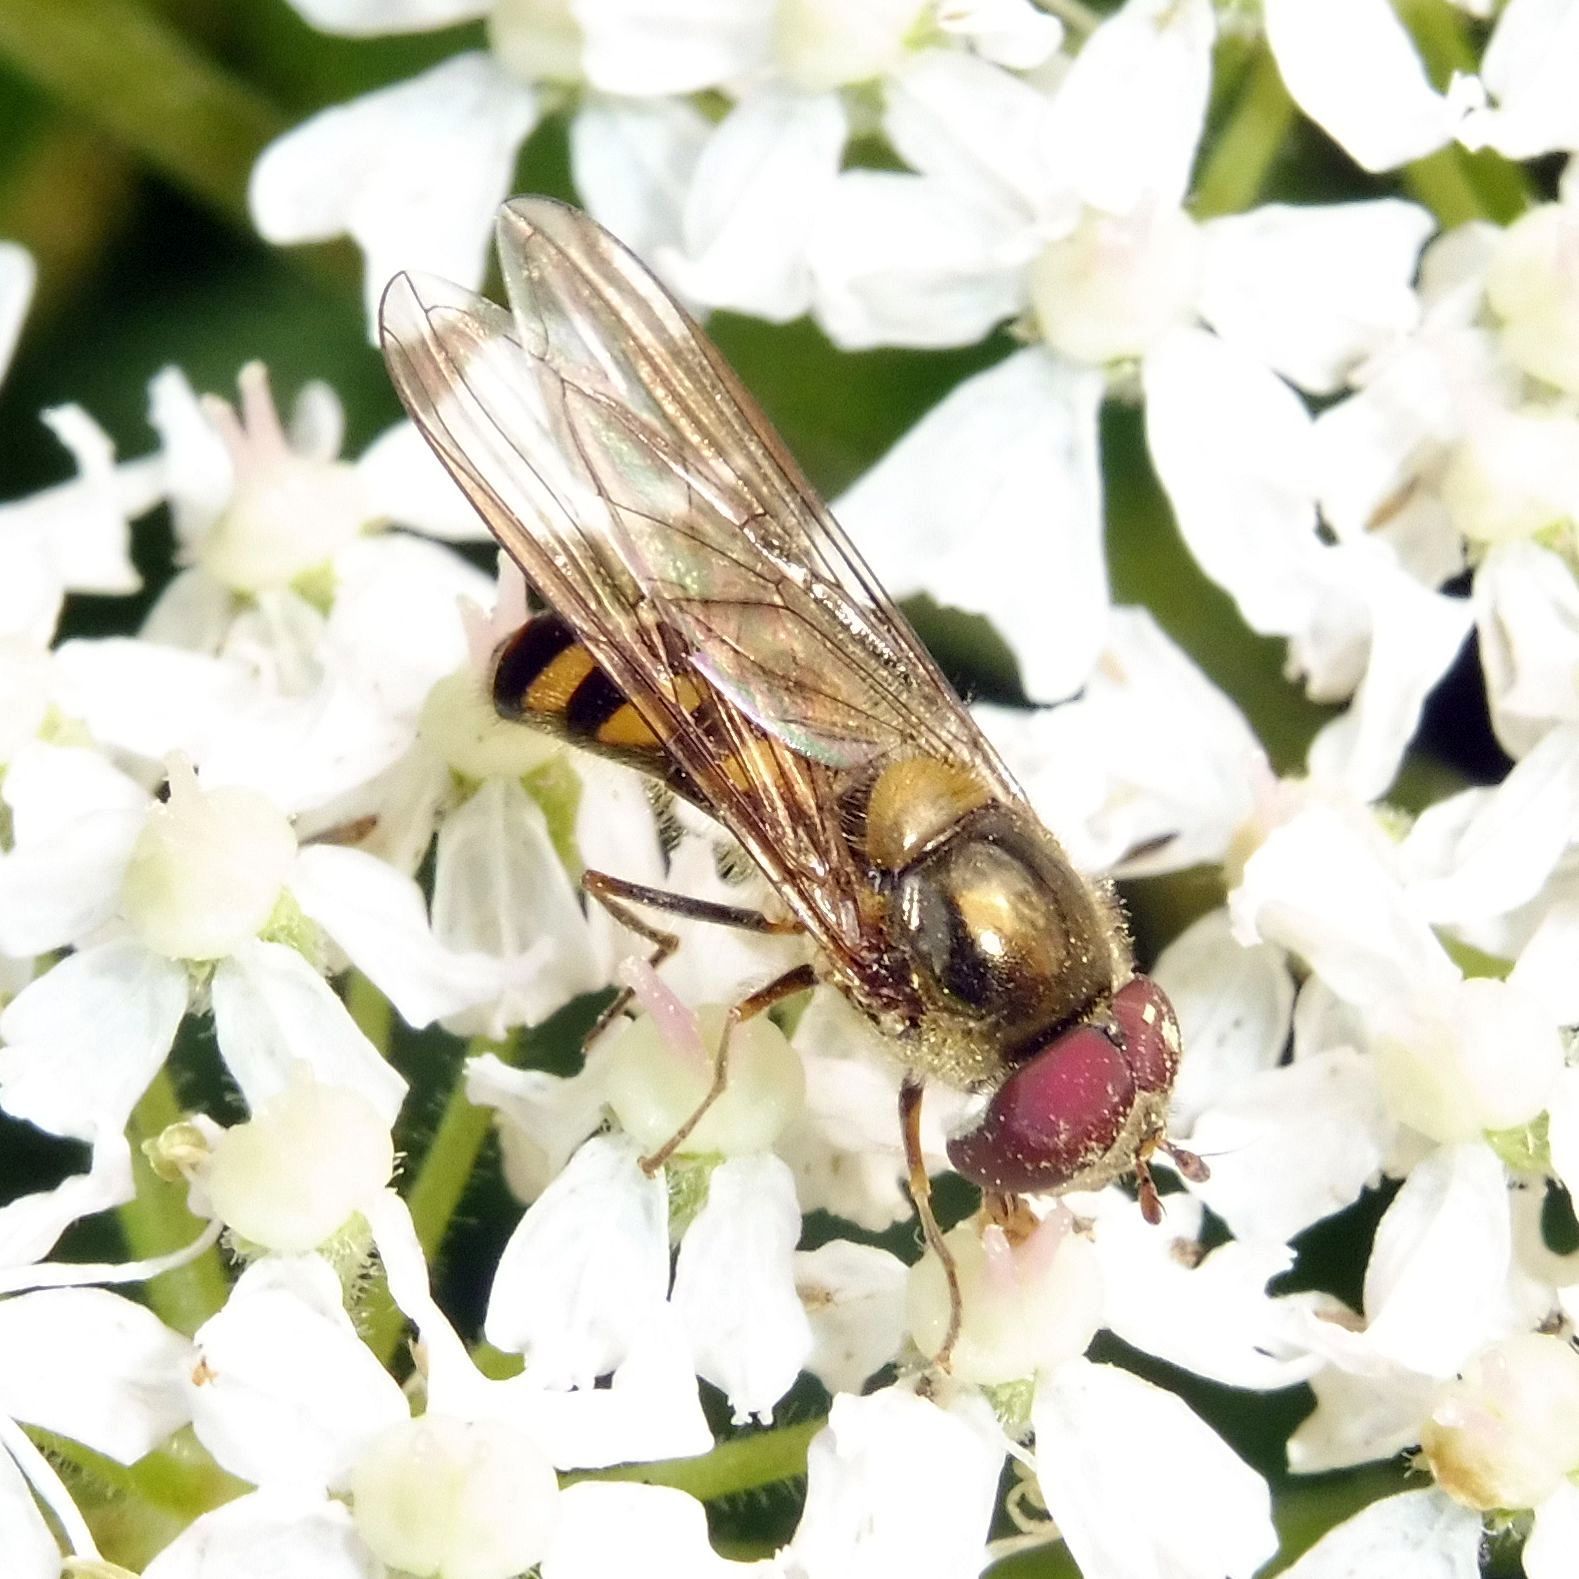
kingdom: Animalia
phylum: Arthropoda
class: Insecta
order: Diptera
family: Syrphidae
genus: Meliscaeva
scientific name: Meliscaeva auricollis
